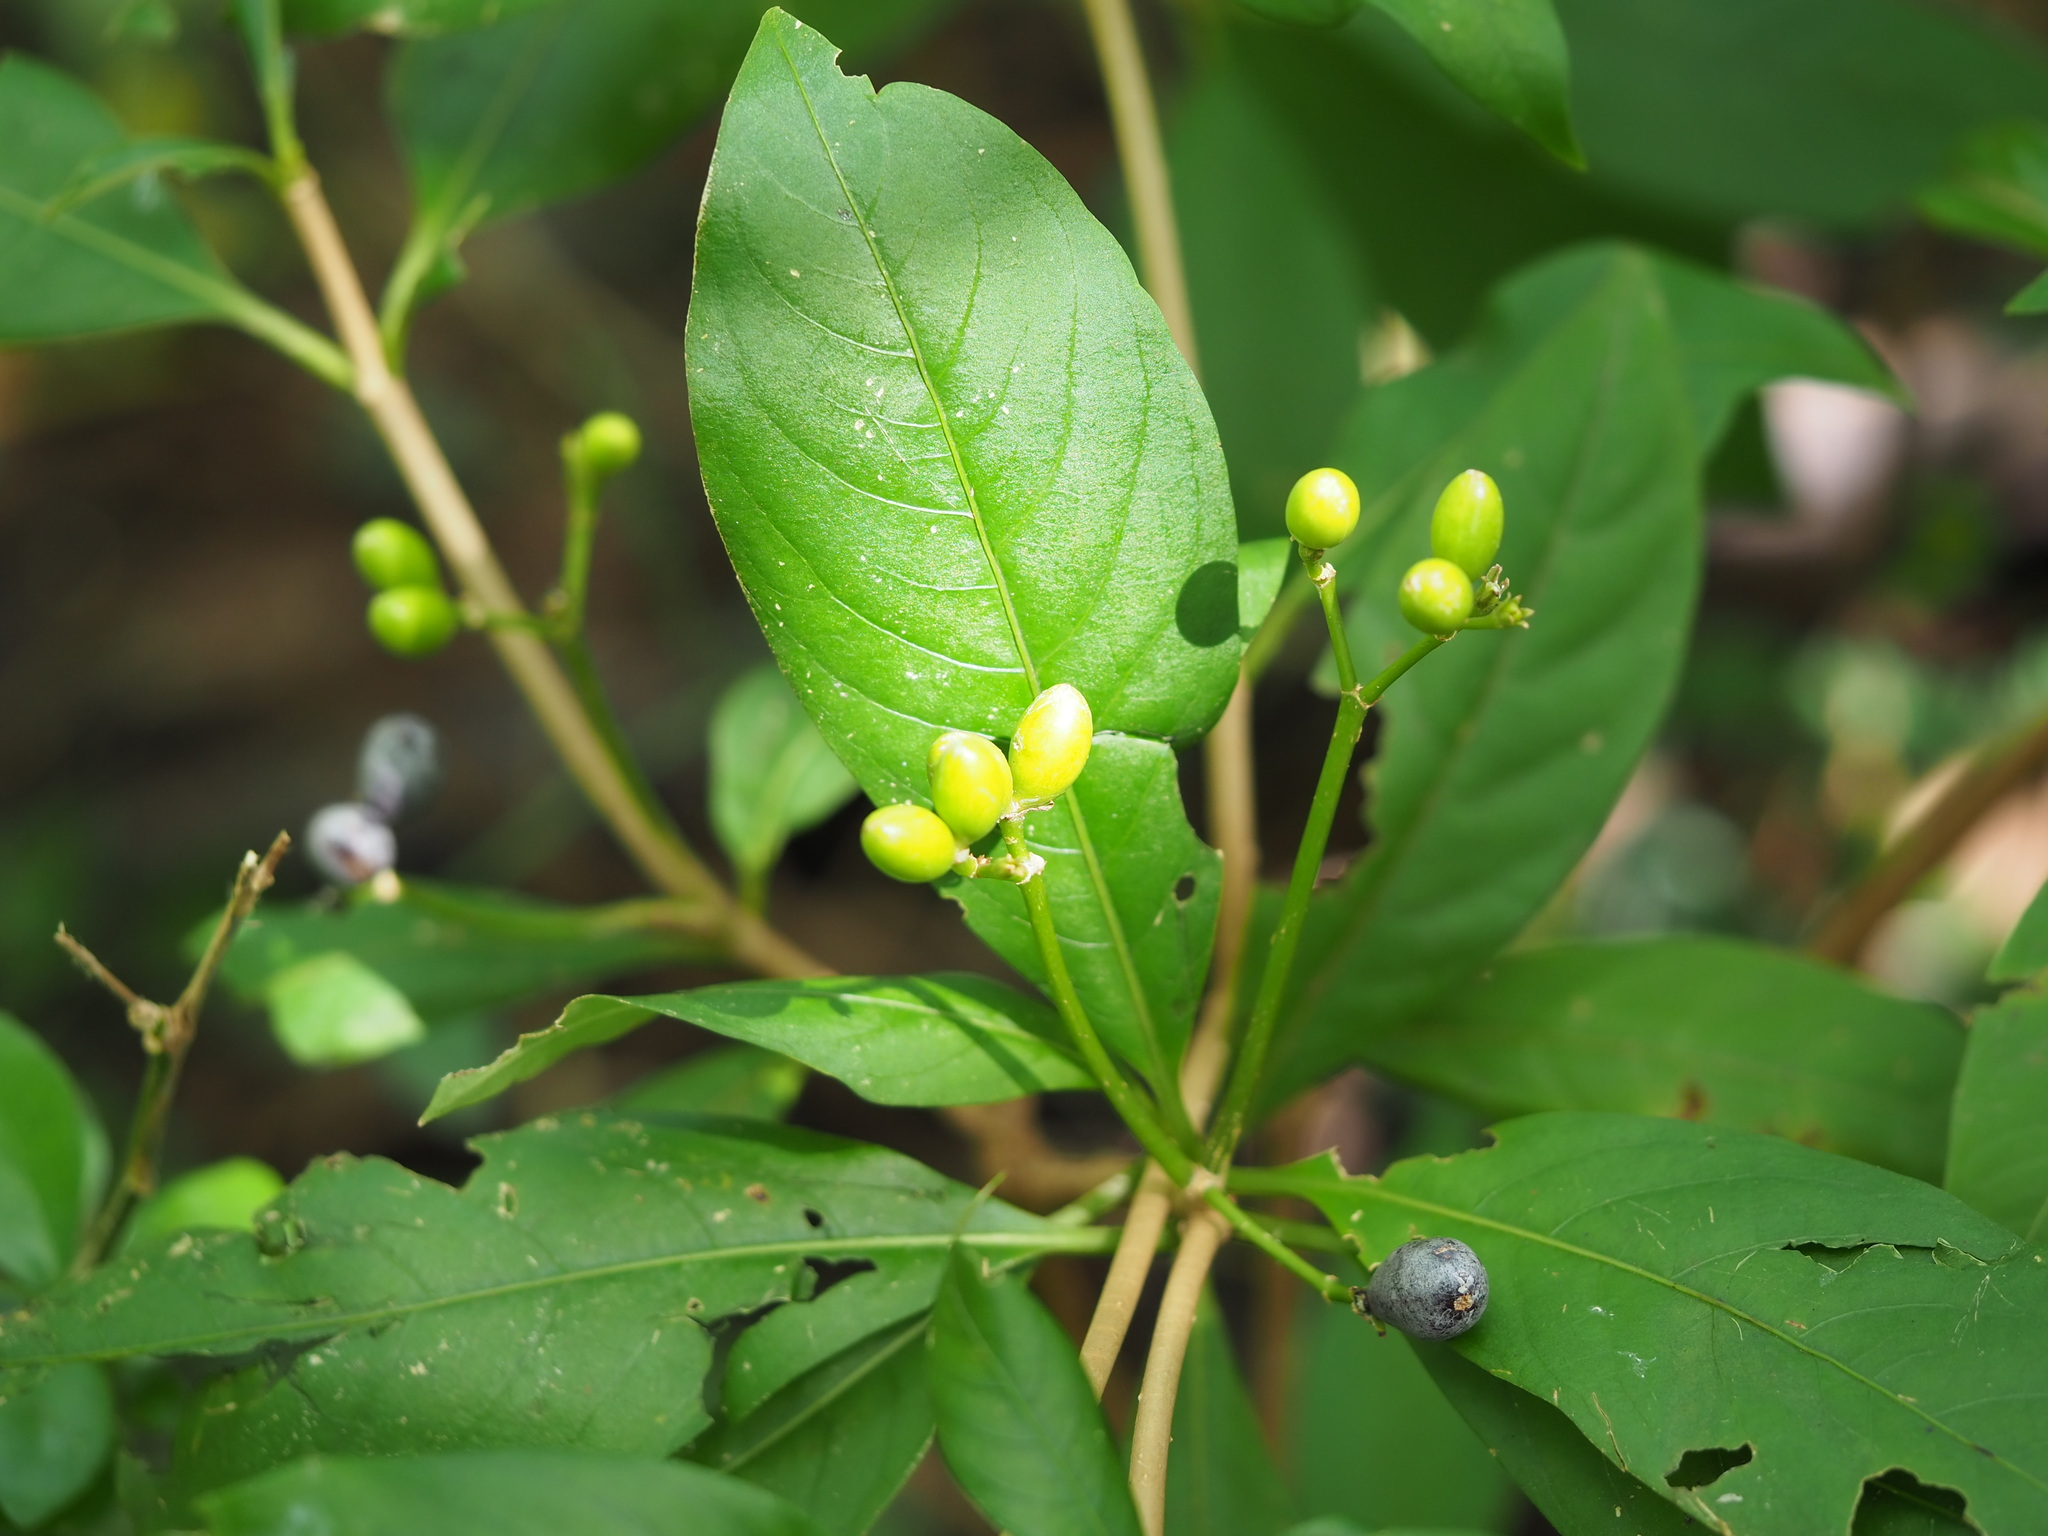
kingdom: Plantae
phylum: Tracheophyta
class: Magnoliopsida
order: Gentianales
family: Apocynaceae
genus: Rauvolfia
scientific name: Rauvolfia verticillata
